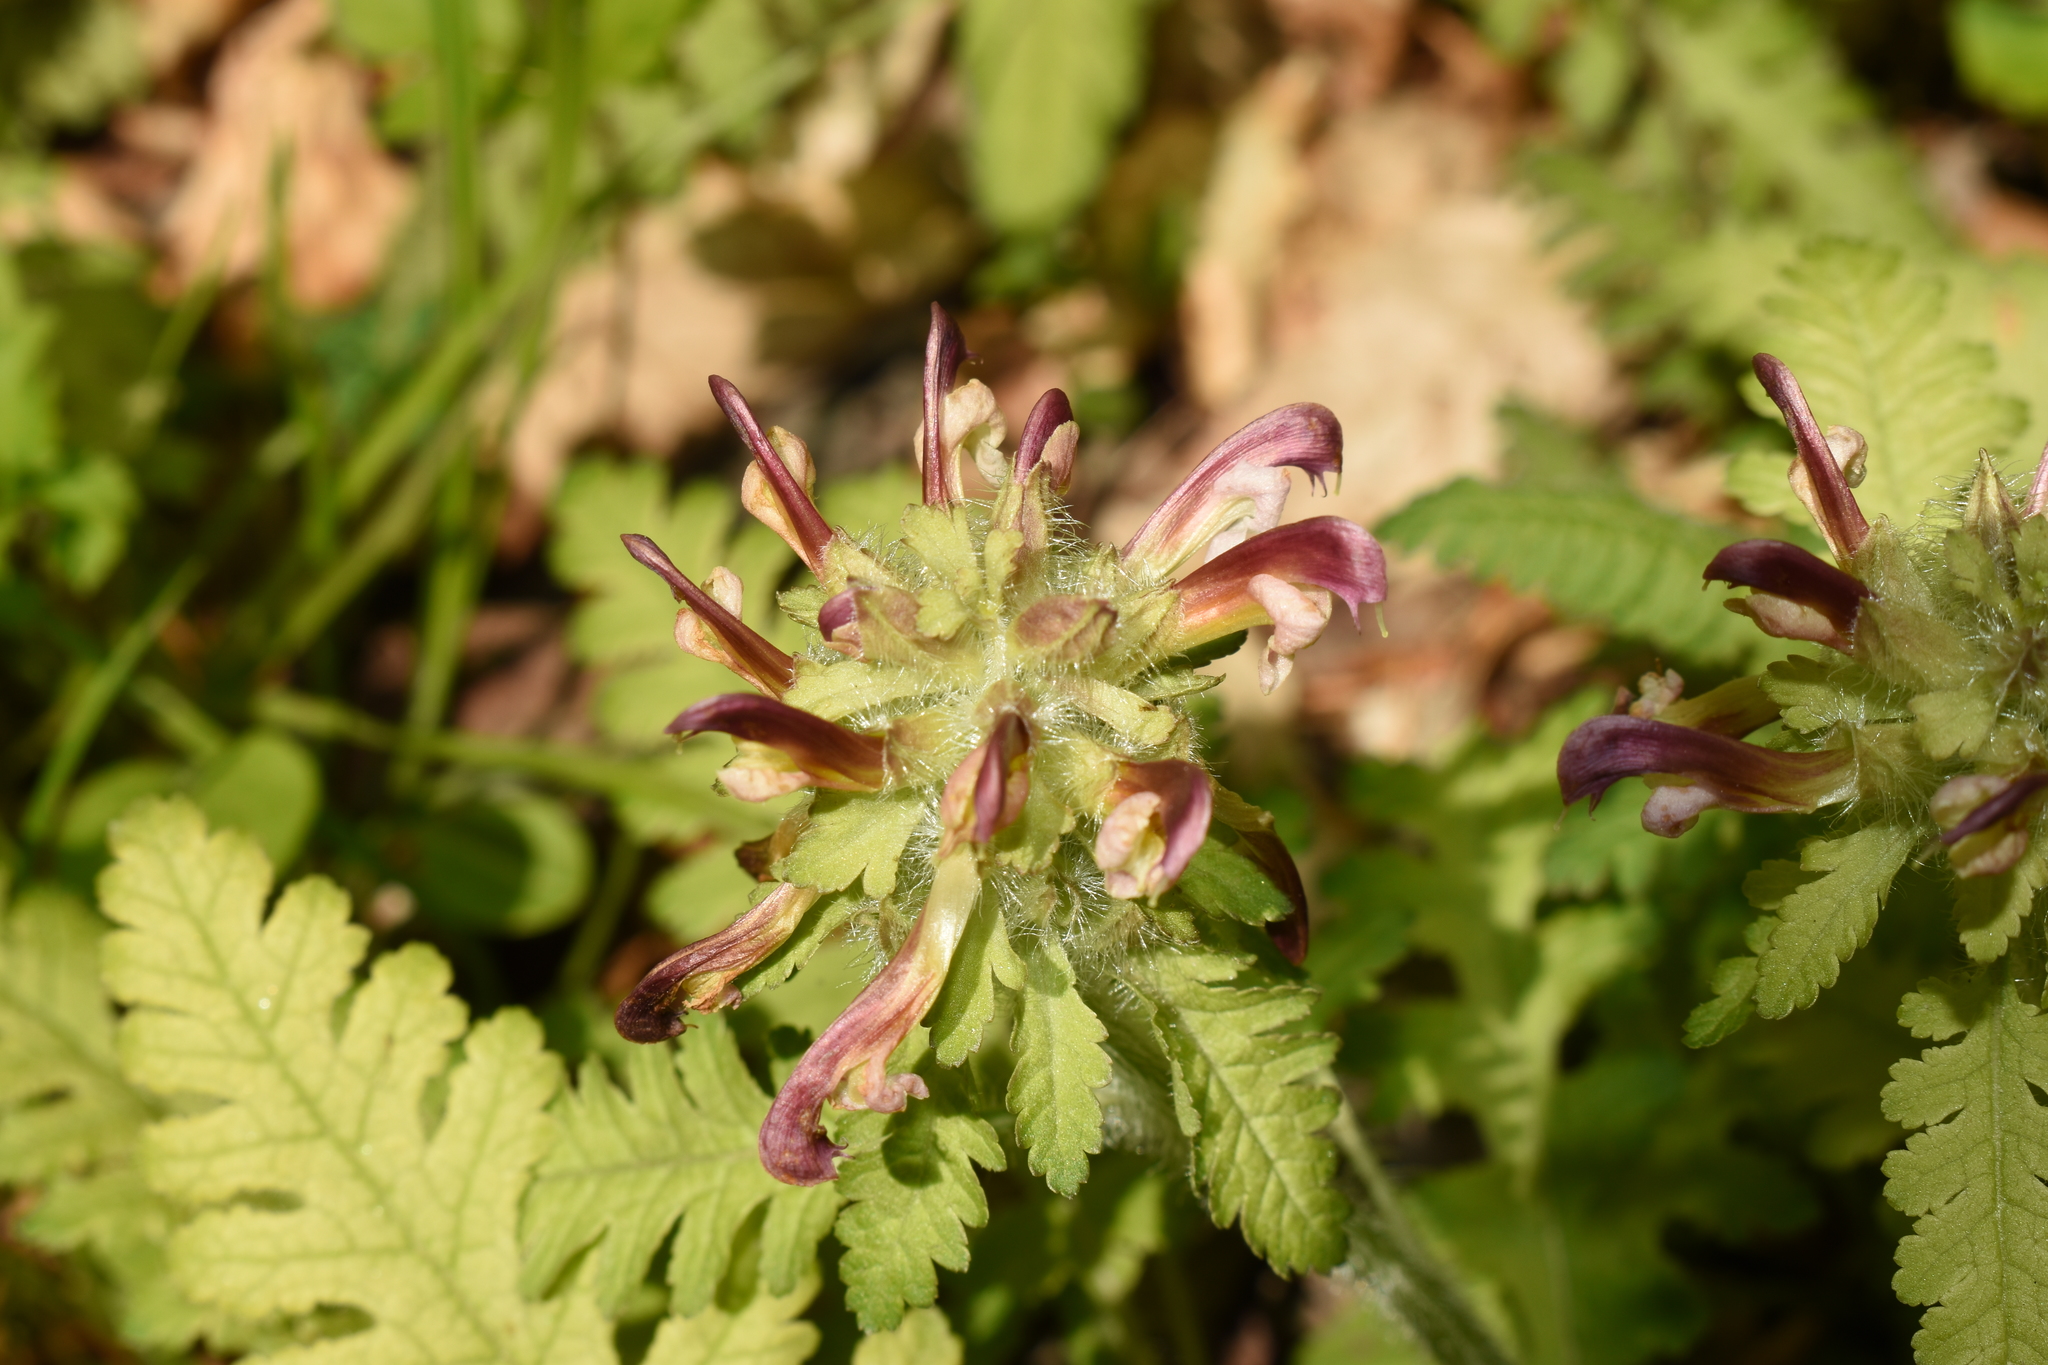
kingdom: Plantae
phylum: Tracheophyta
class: Magnoliopsida
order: Lamiales
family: Orobanchaceae
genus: Pedicularis
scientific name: Pedicularis canadensis
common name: Early lousewort
